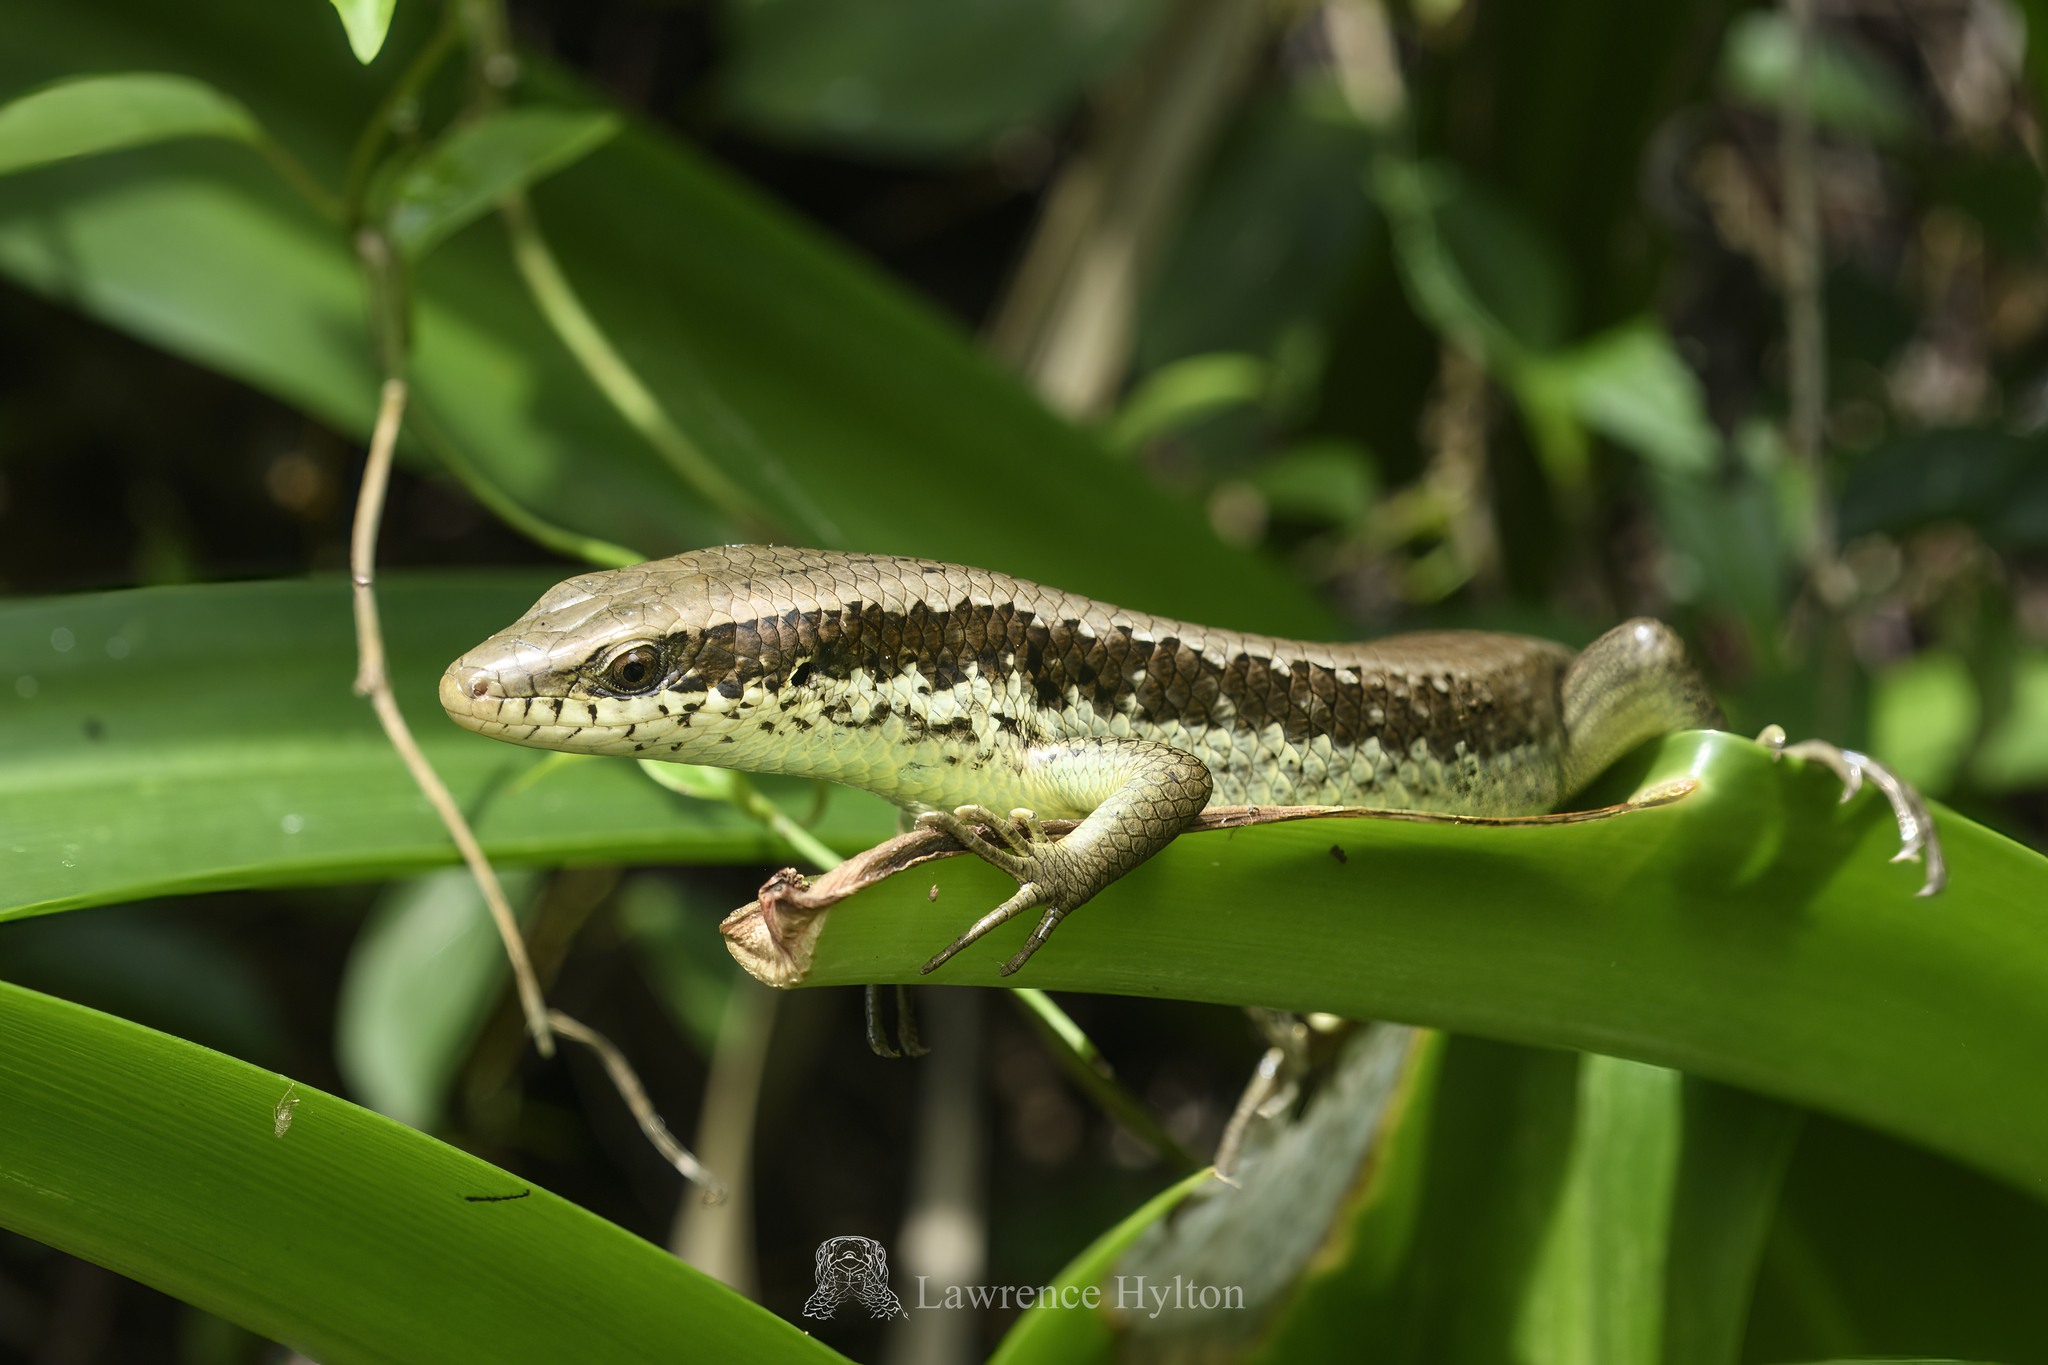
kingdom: Animalia
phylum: Chordata
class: Squamata
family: Scincidae
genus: Eutropis
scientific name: Eutropis longicaudata
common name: Long-tailed sun skink
